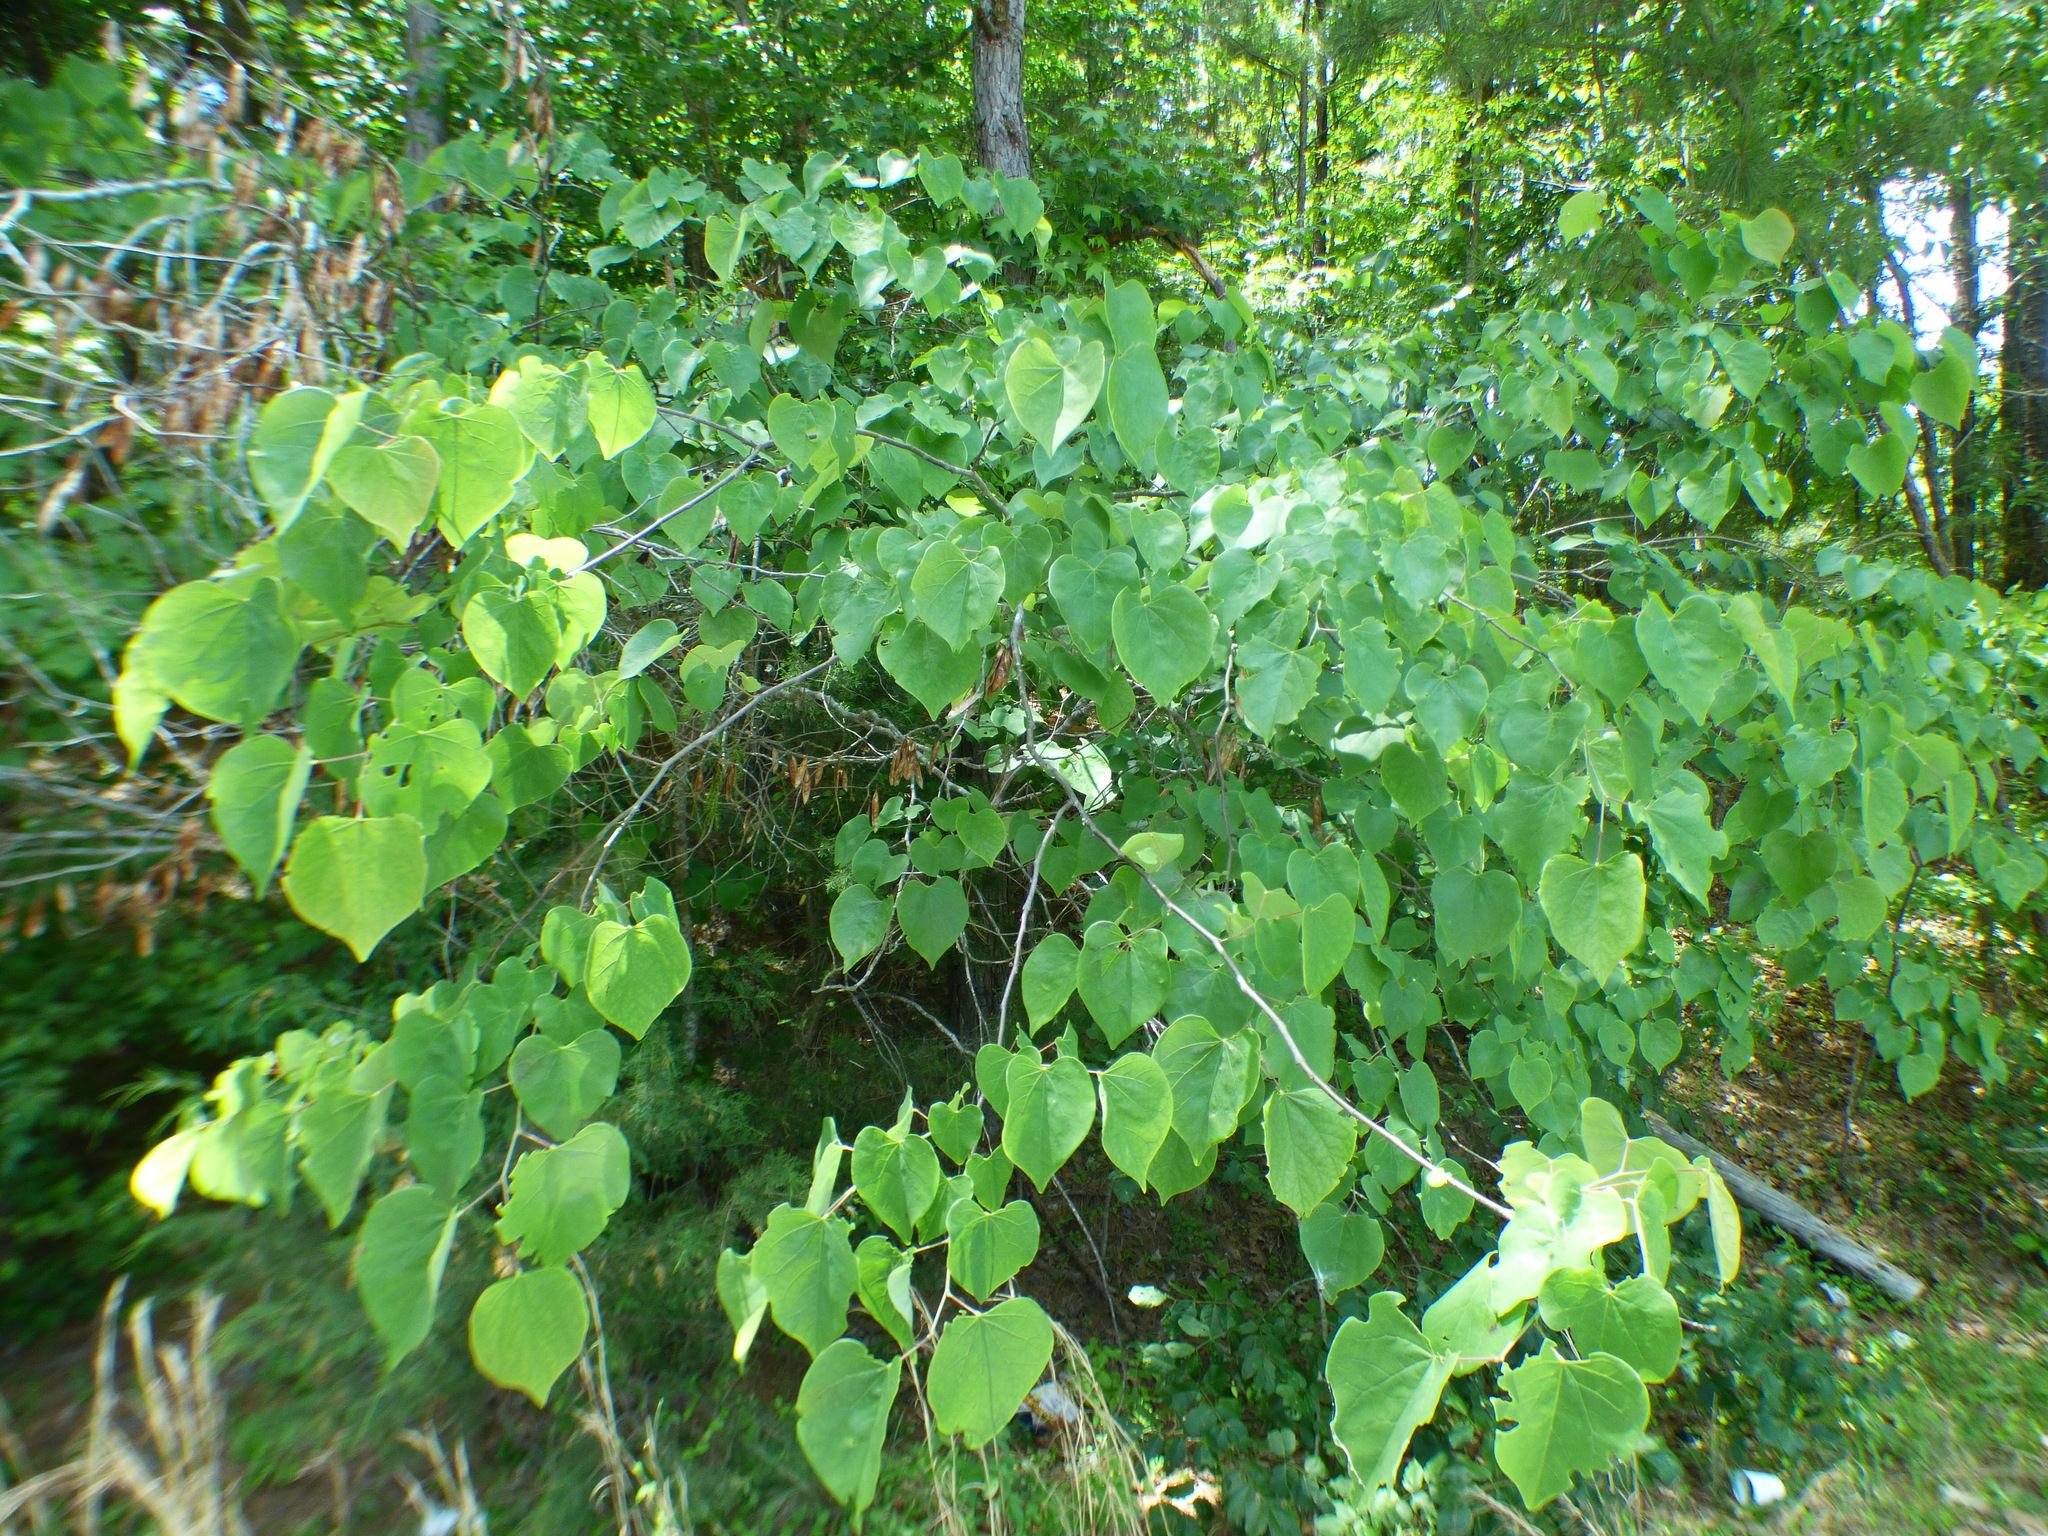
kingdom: Plantae
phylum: Tracheophyta
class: Magnoliopsida
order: Fabales
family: Fabaceae
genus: Cercis
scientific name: Cercis canadensis
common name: Eastern redbud
